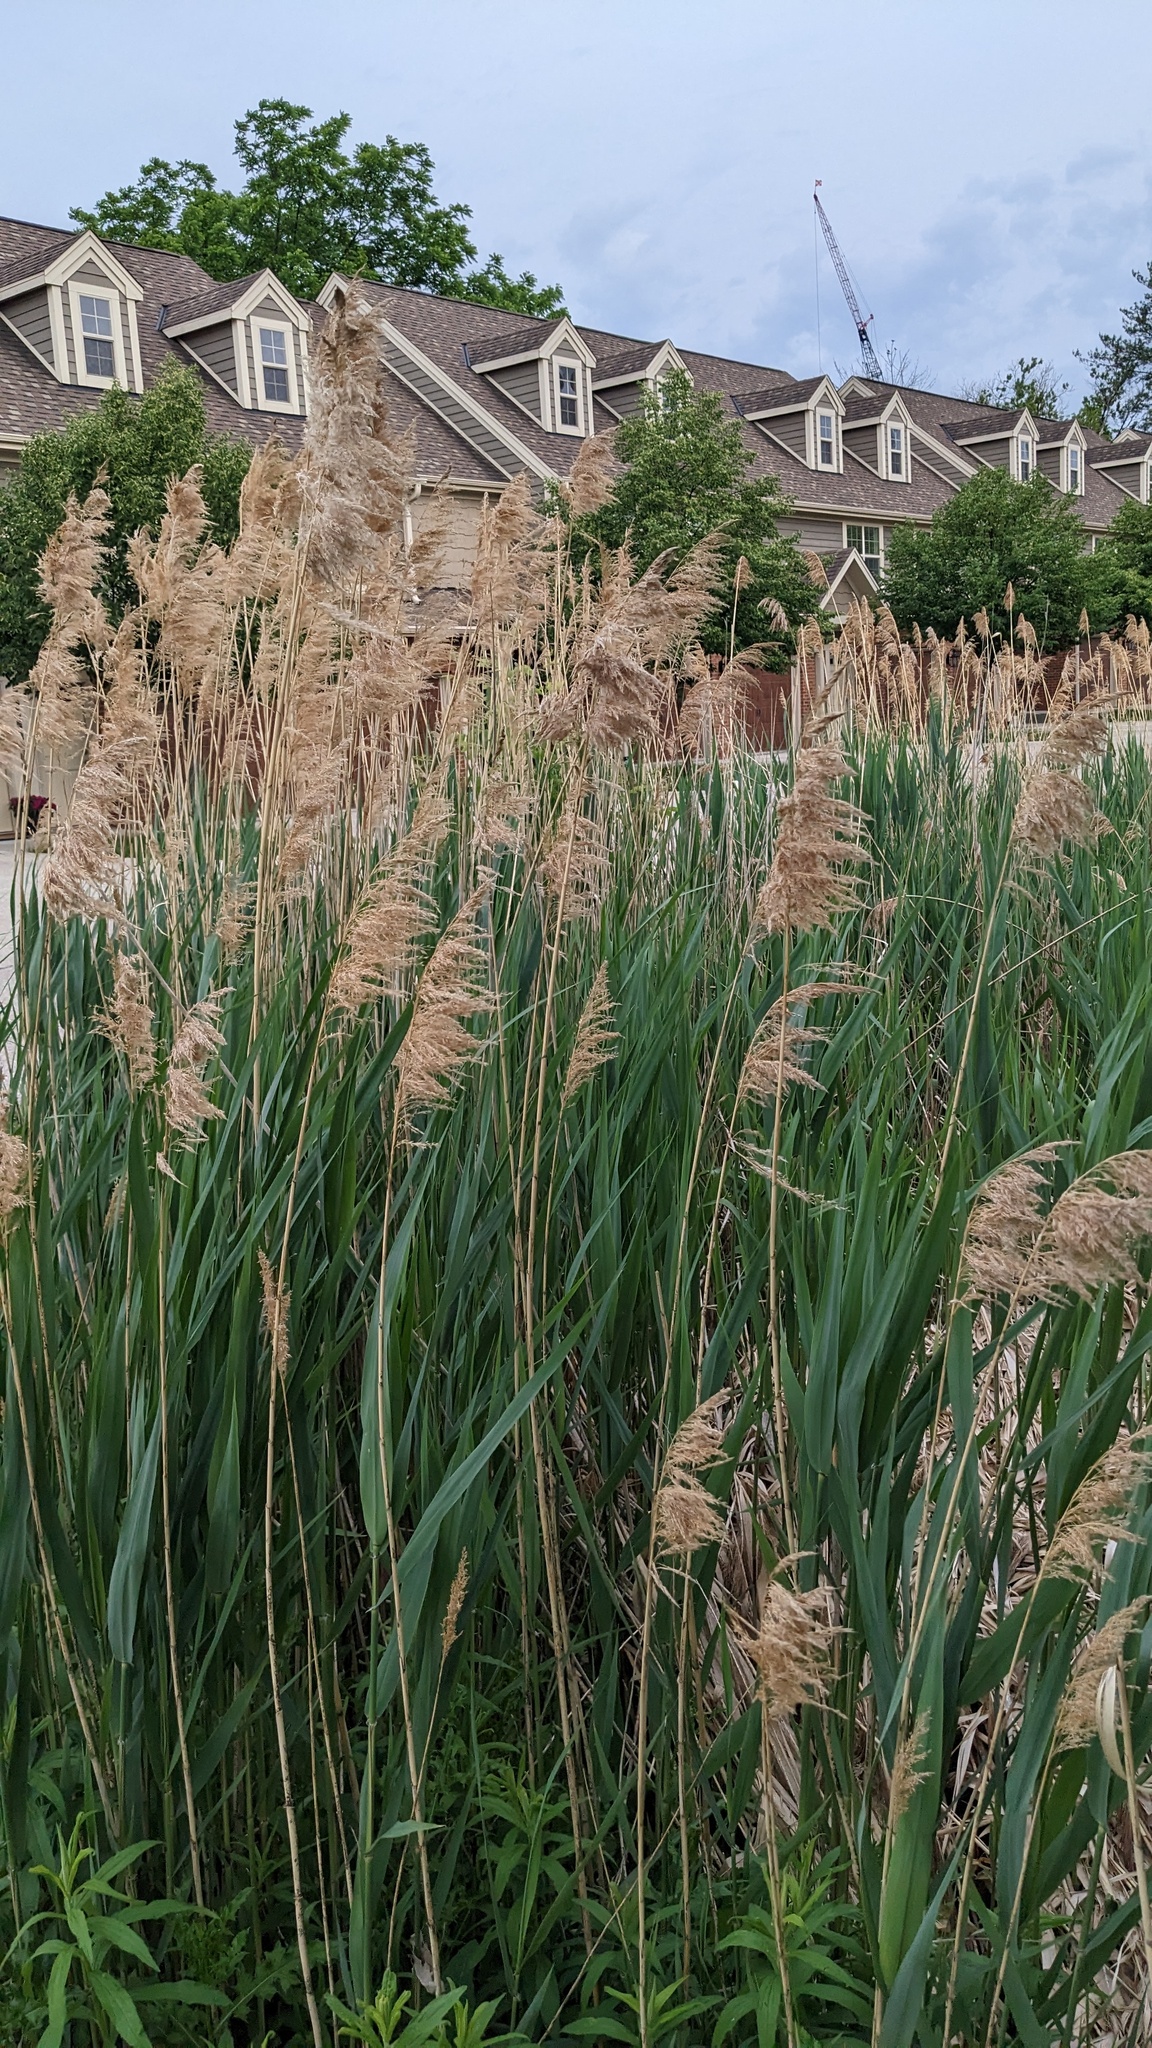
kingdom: Plantae
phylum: Tracheophyta
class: Liliopsida
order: Poales
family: Poaceae
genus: Phragmites
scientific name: Phragmites australis
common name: Common reed
